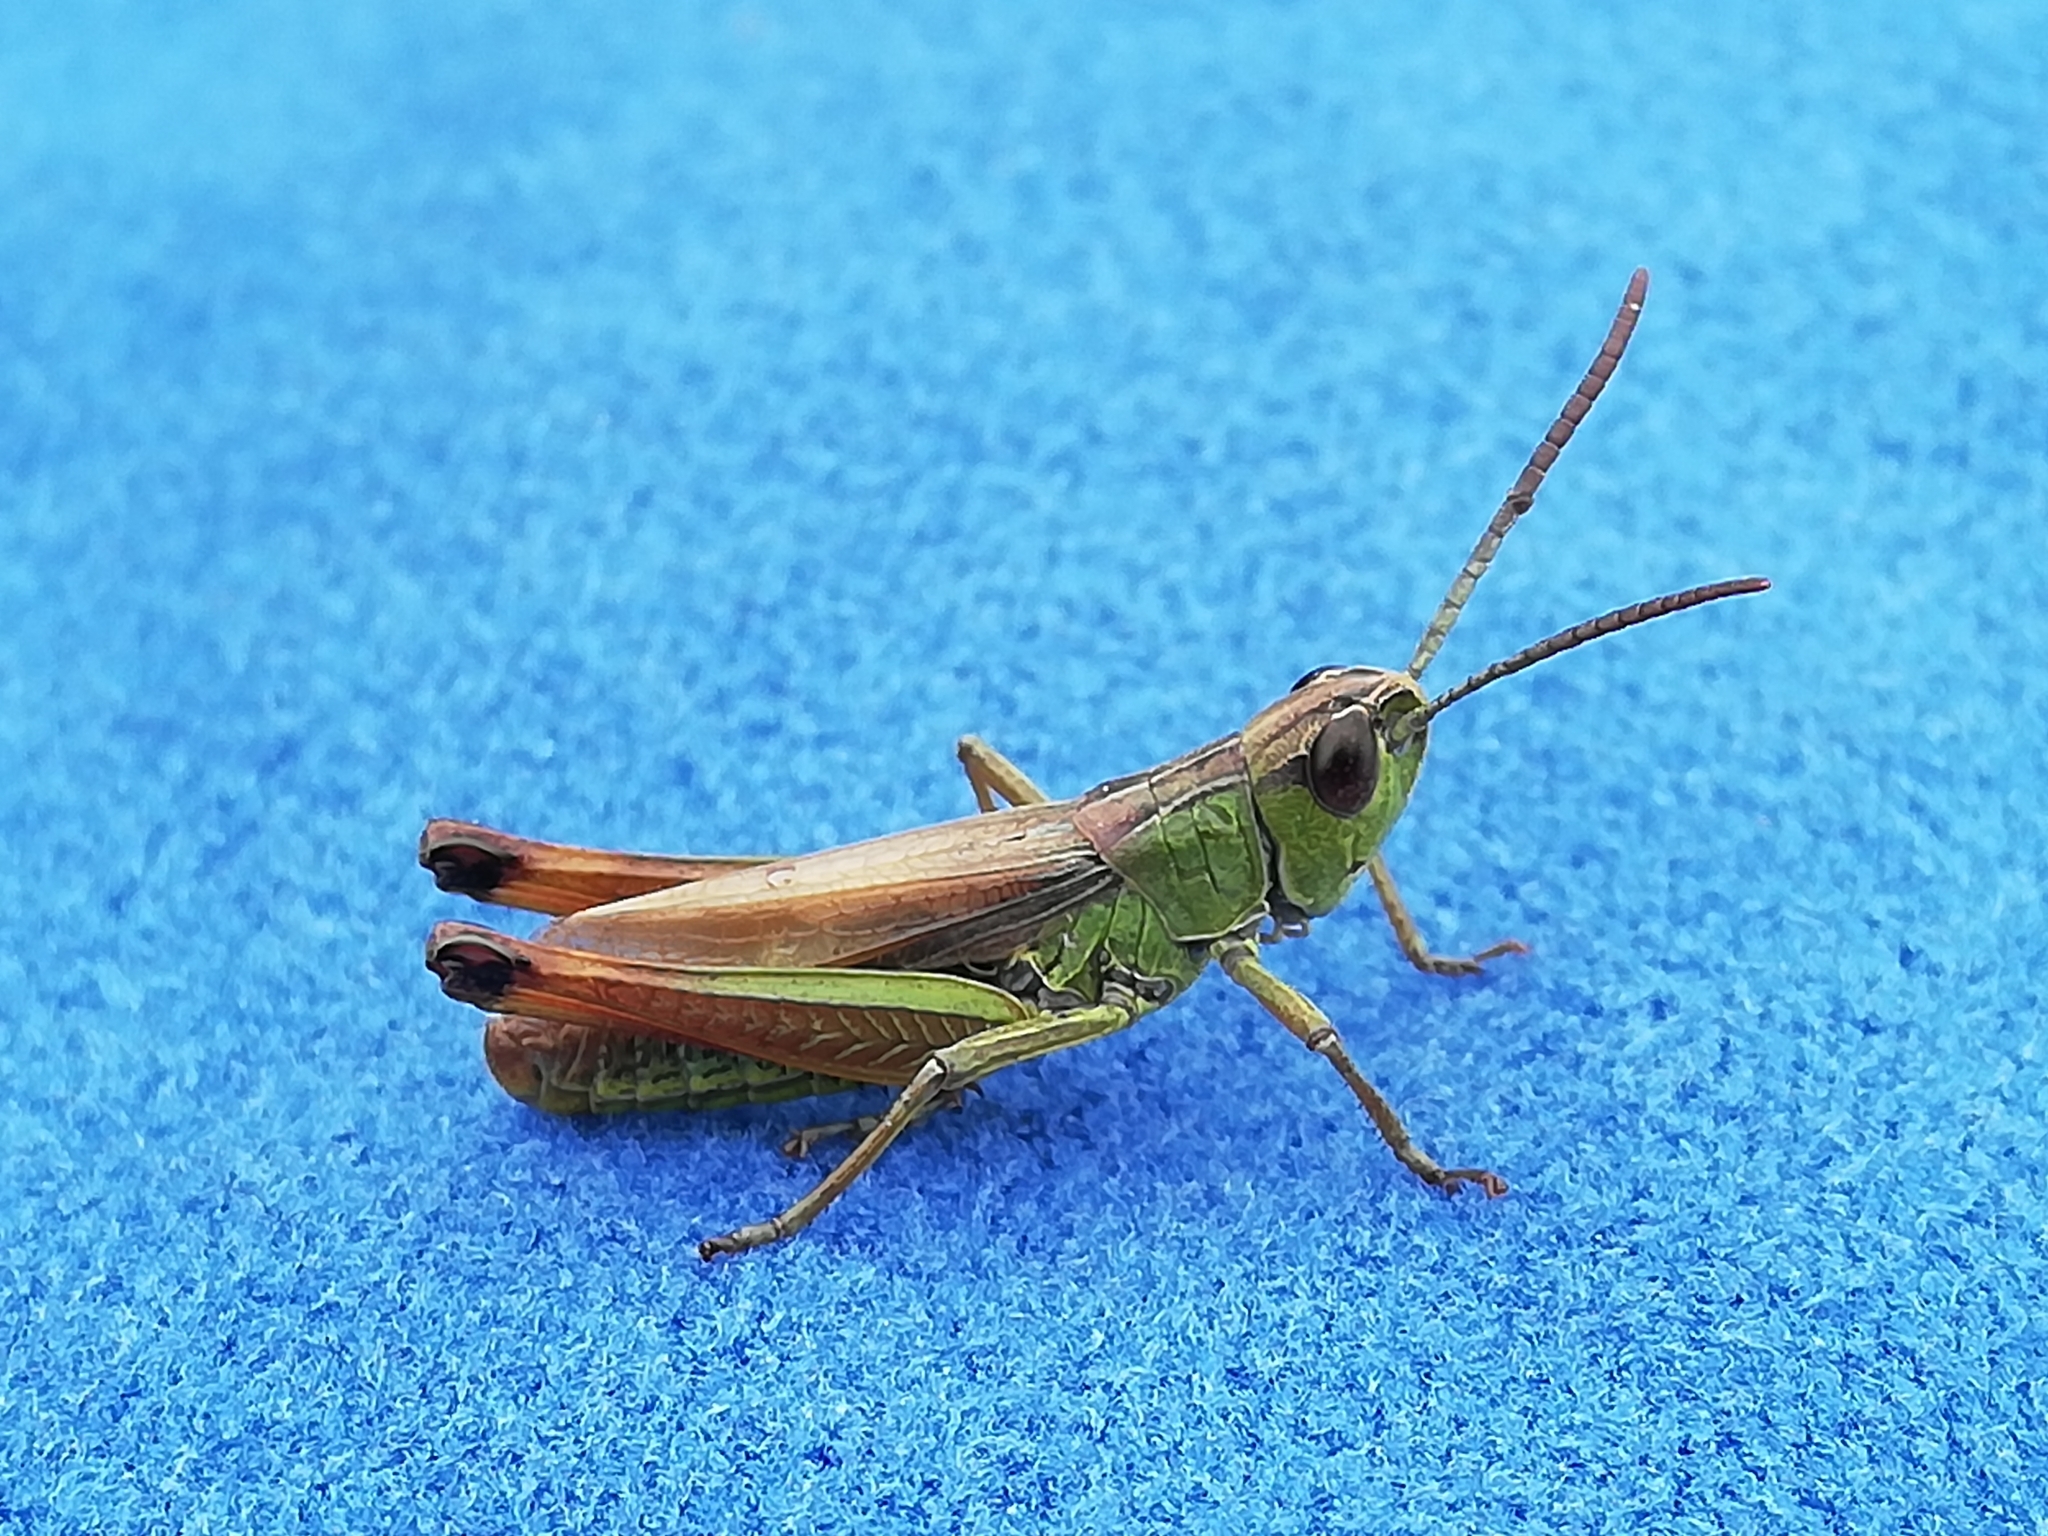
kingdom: Animalia
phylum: Arthropoda
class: Insecta
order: Orthoptera
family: Acrididae
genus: Pseudochorthippus
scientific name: Pseudochorthippus parallelus
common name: Meadow grasshopper
